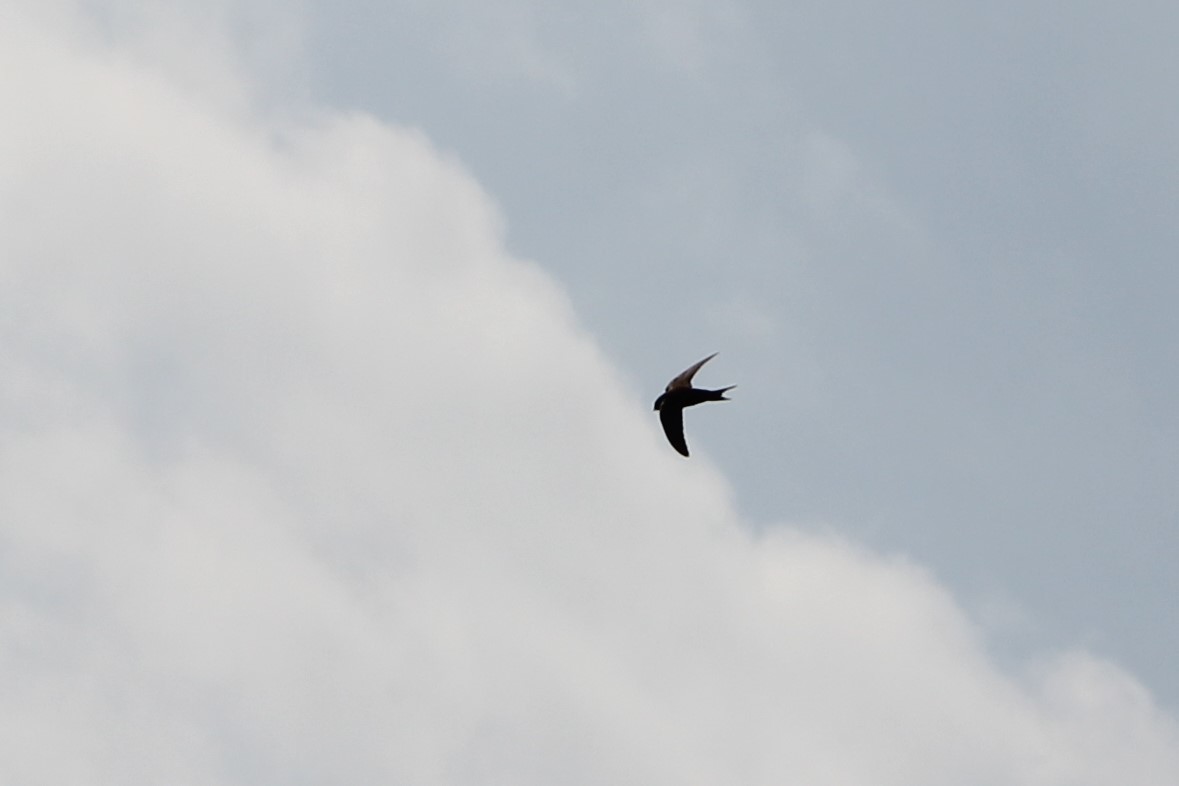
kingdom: Animalia
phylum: Chordata
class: Aves
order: Apodiformes
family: Apodidae
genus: Apus
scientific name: Apus apus
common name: Common swift
